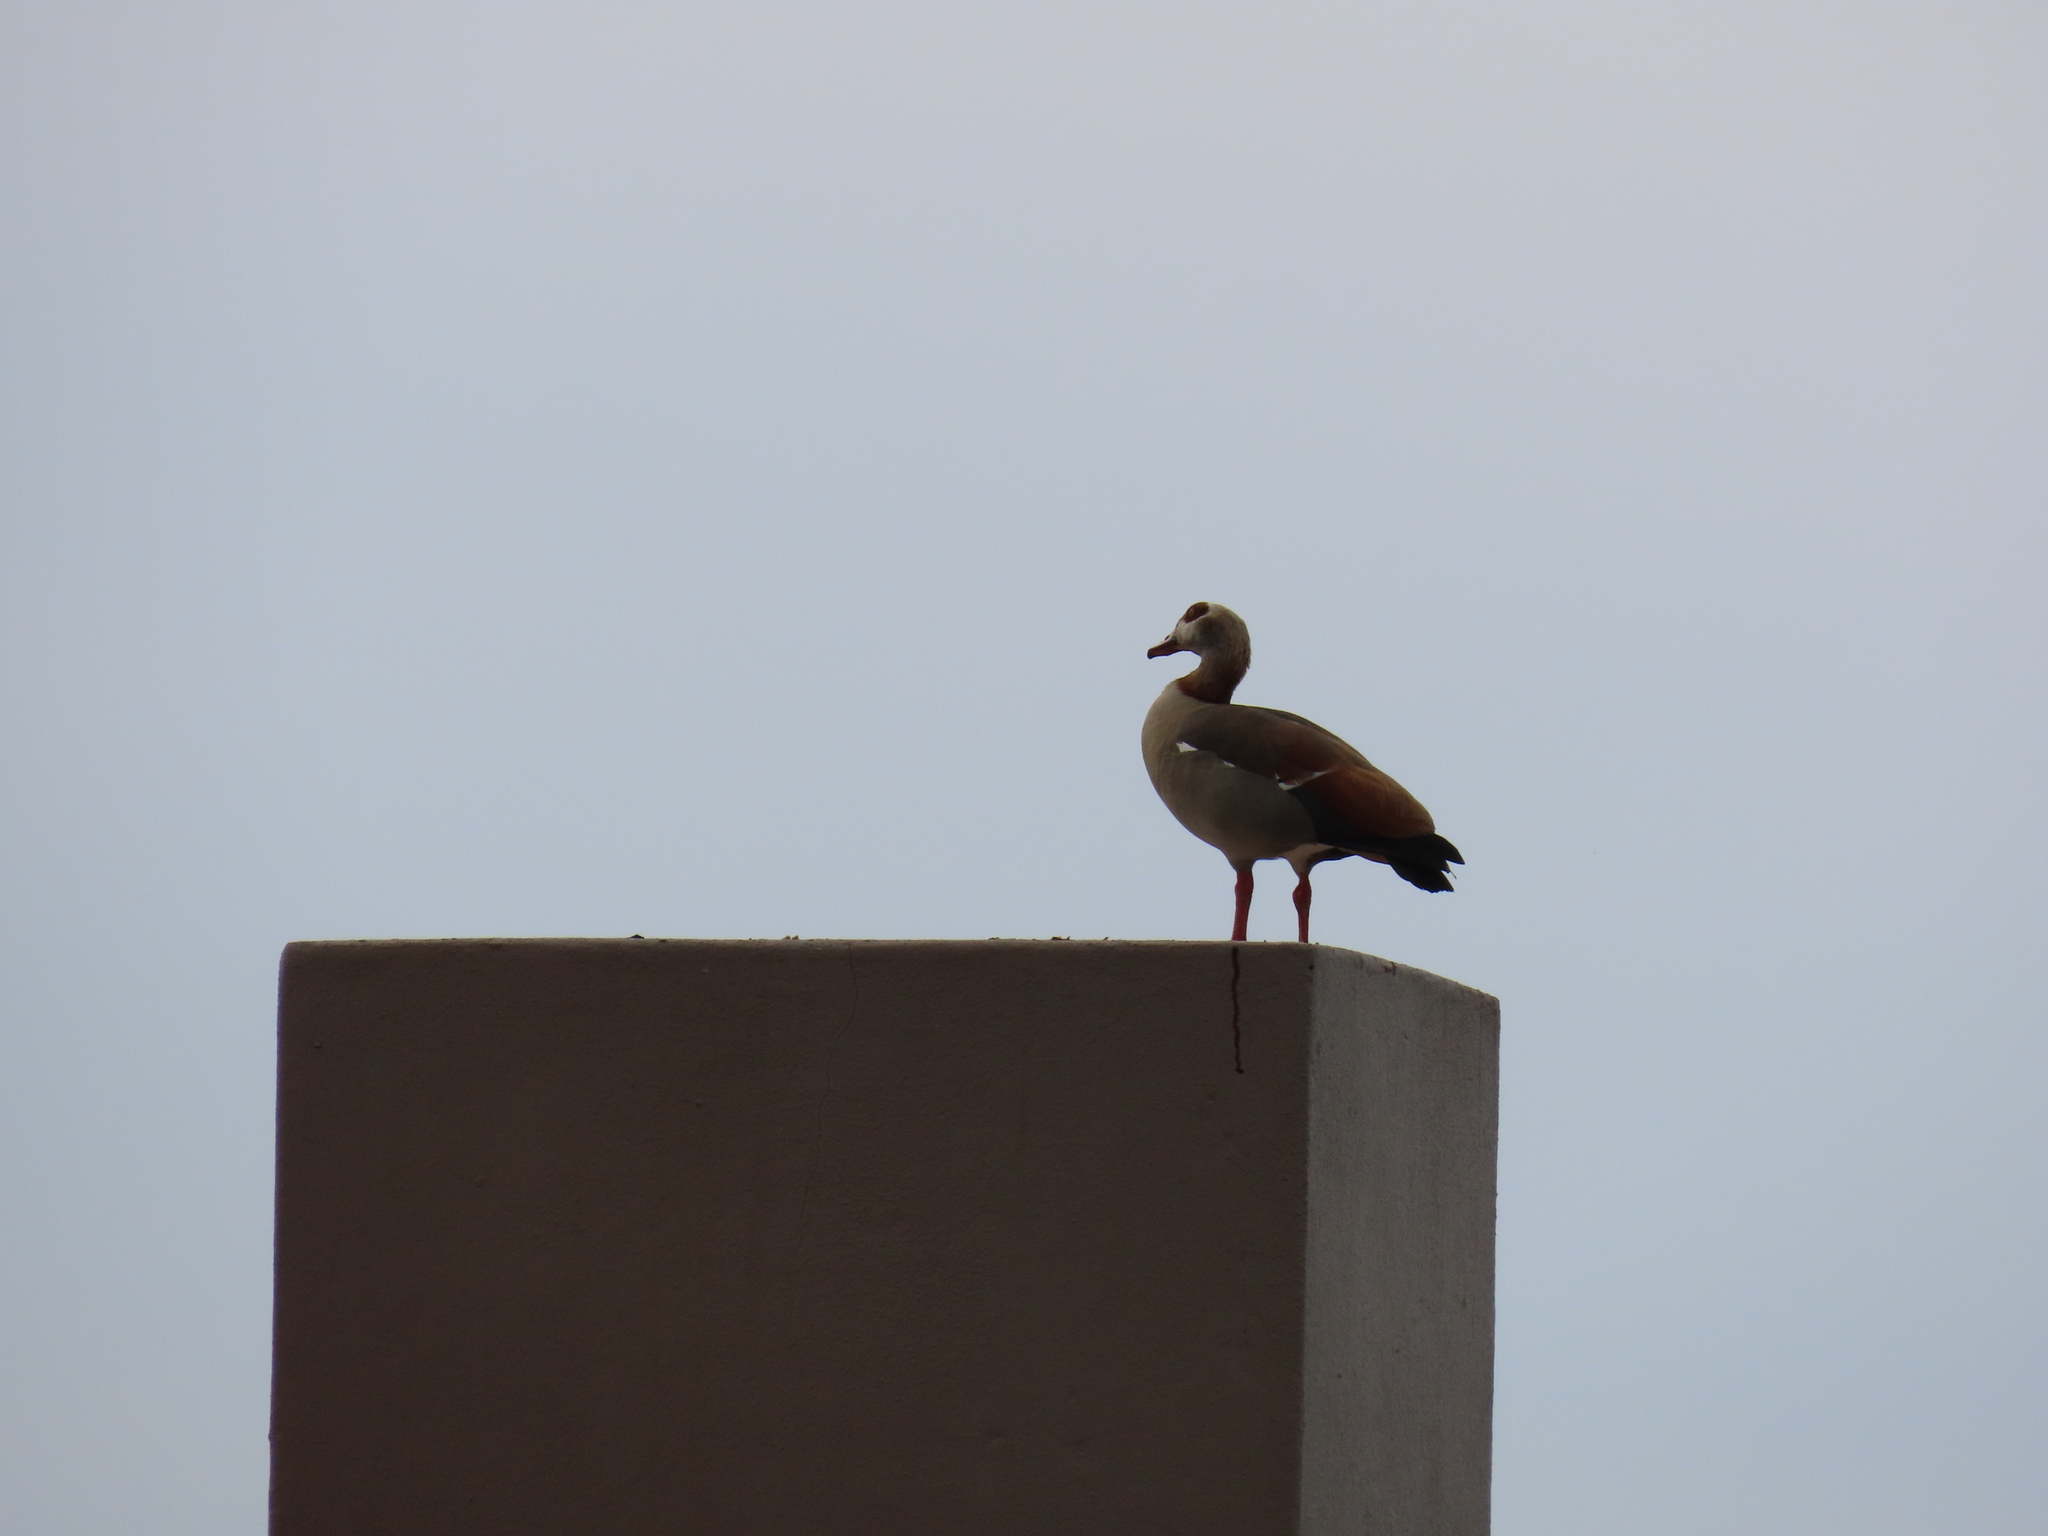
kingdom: Animalia
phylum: Chordata
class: Aves
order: Anseriformes
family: Anatidae
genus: Alopochen
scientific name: Alopochen aegyptiaca
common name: Egyptian goose
